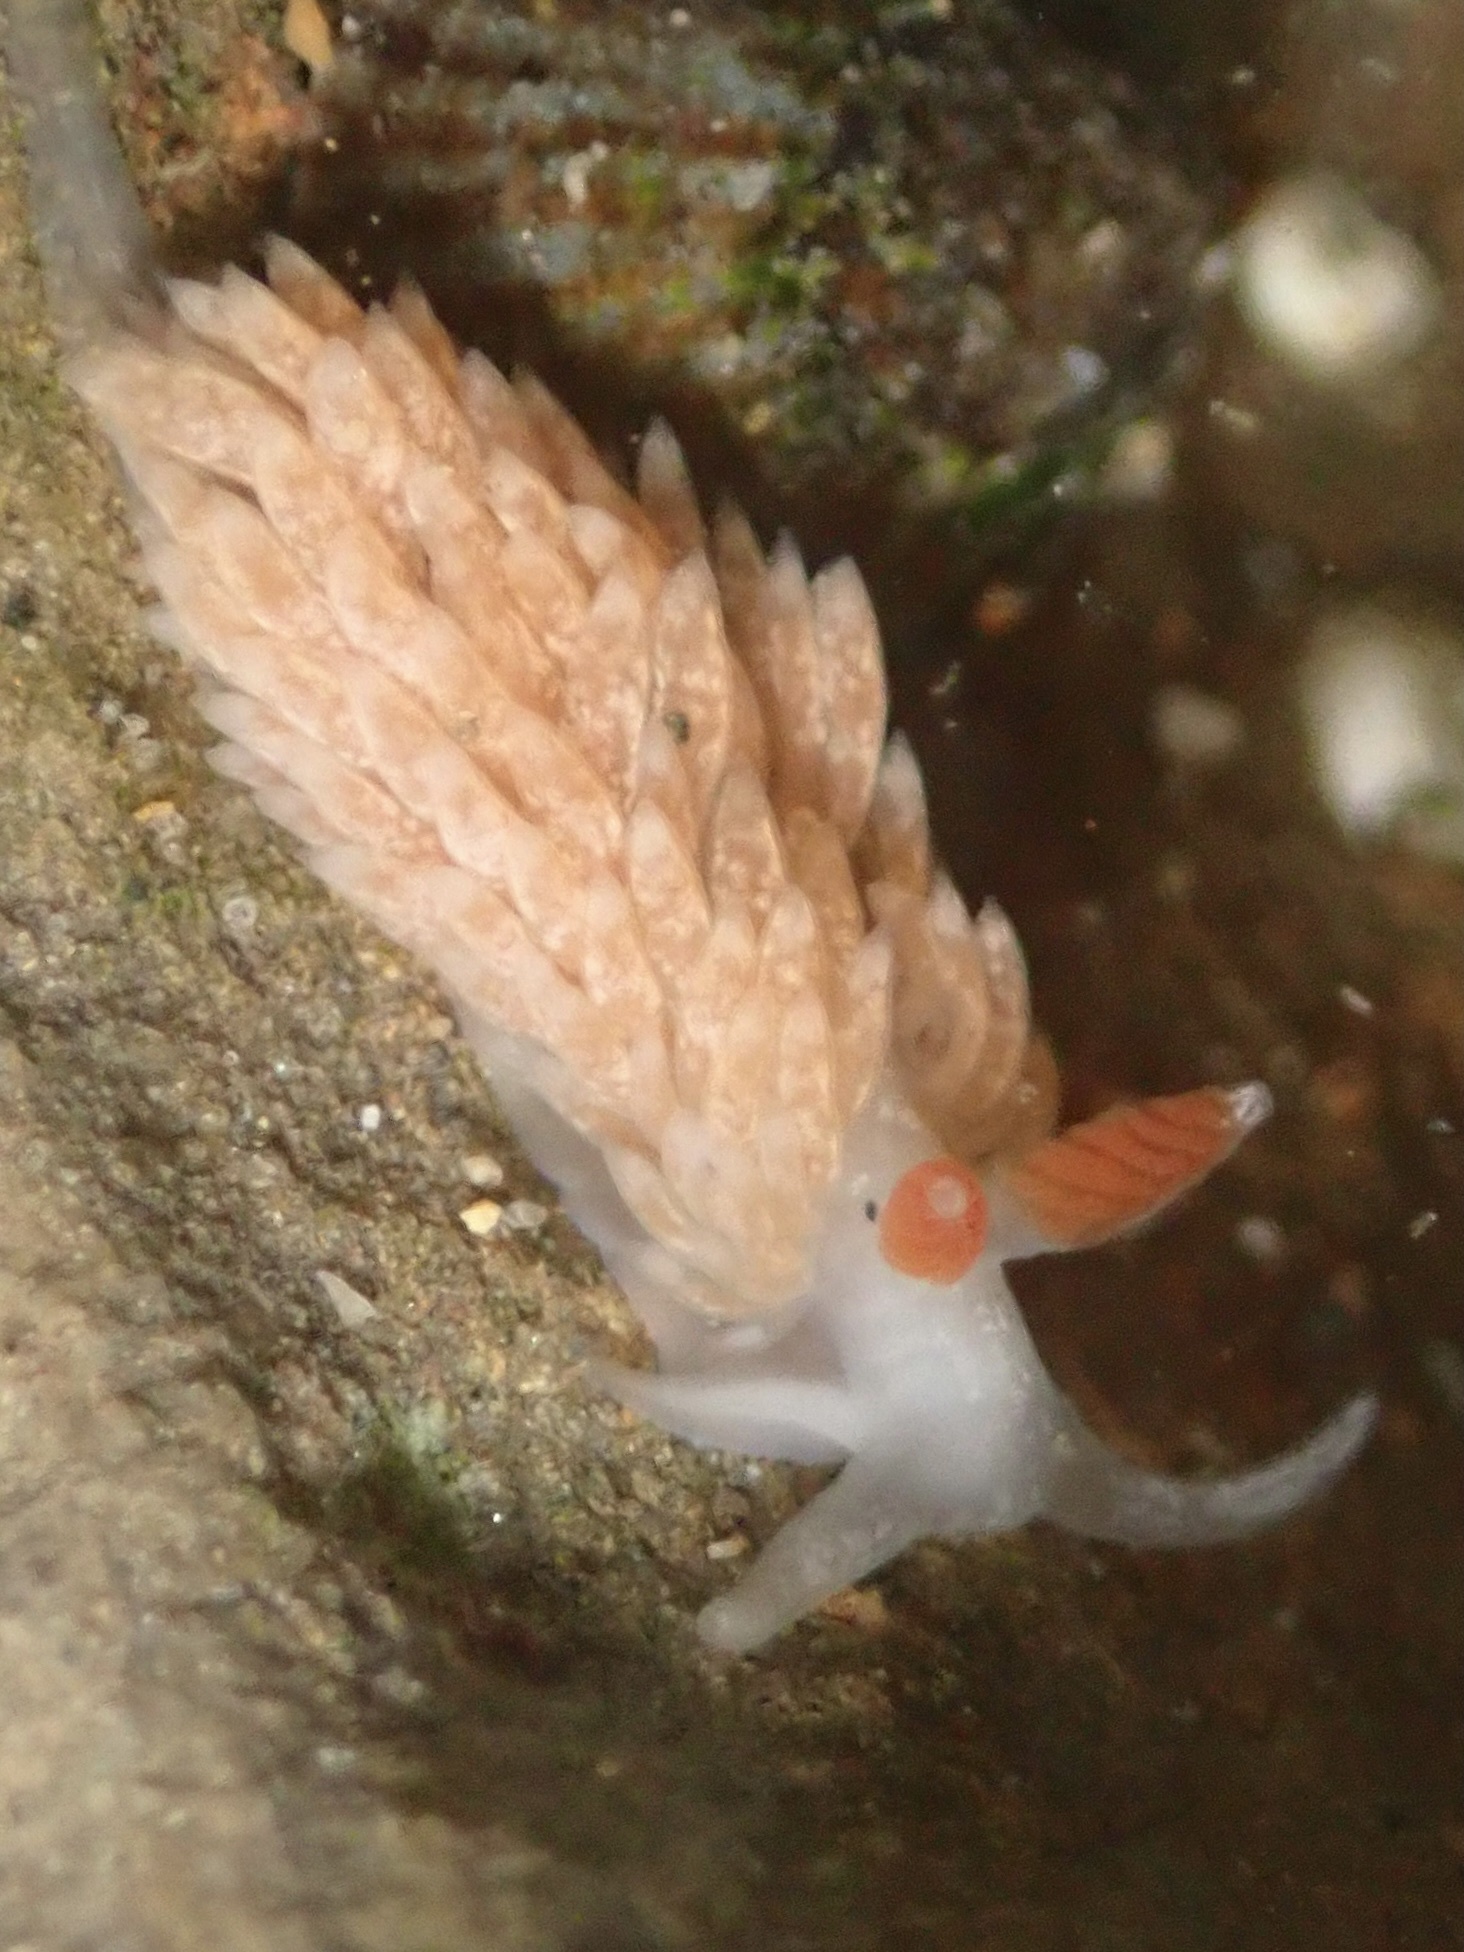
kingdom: Animalia
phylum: Mollusca
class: Gastropoda
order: Nudibranchia
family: Aeolidiidae
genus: Anteaeolidiella
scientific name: Anteaeolidiella oliviae
